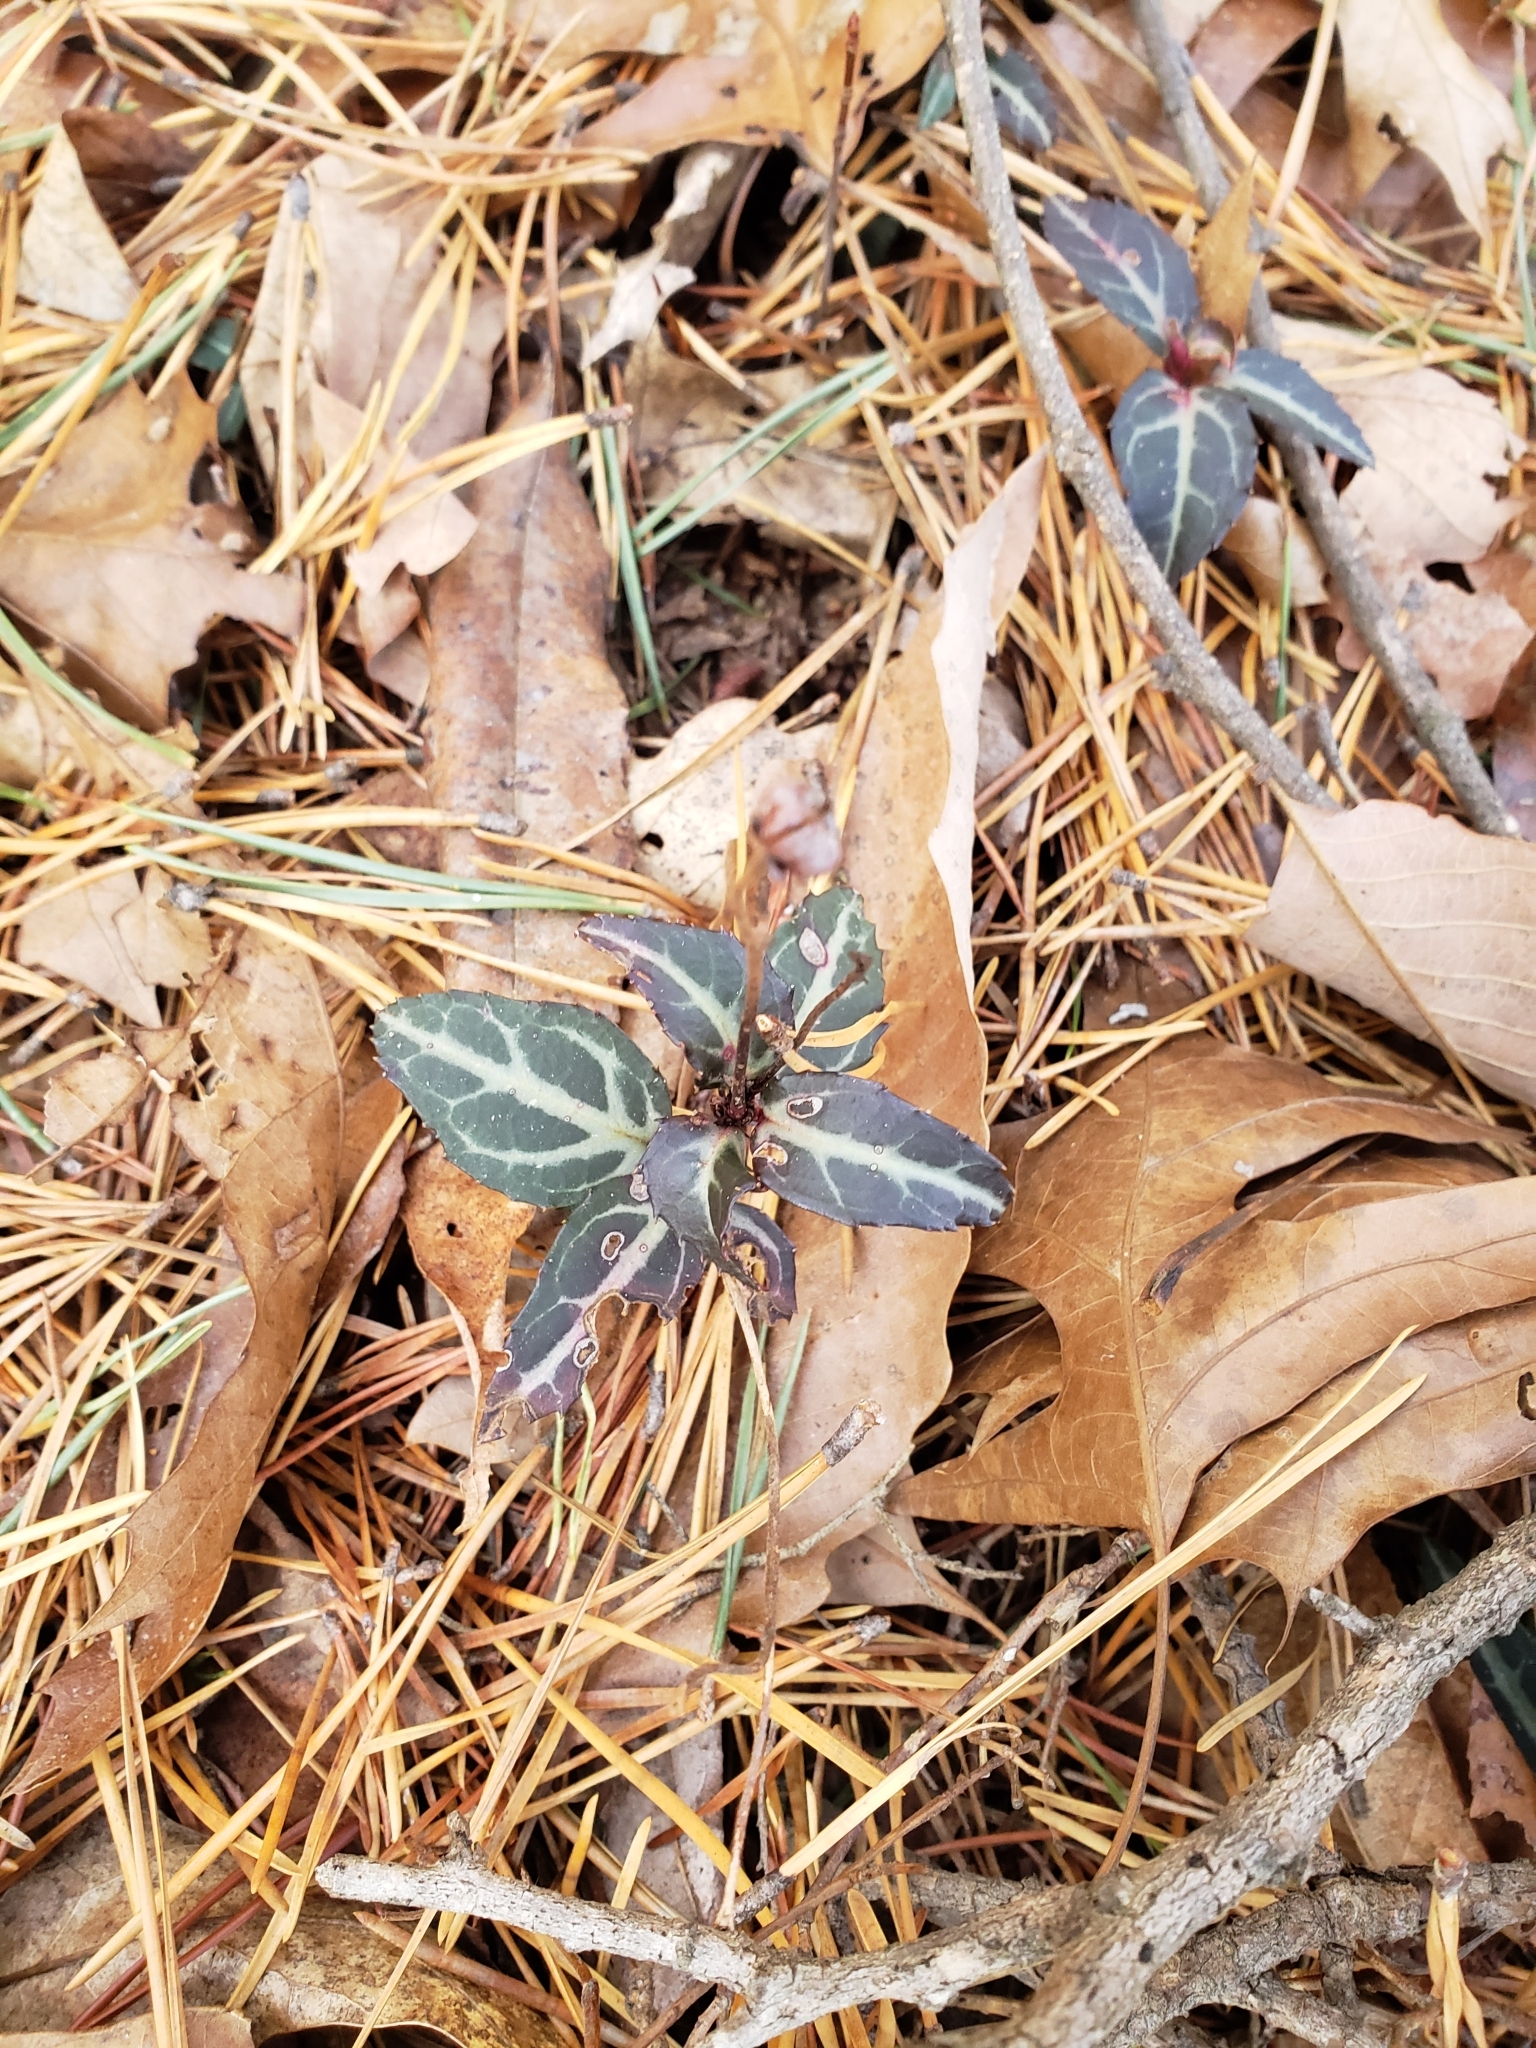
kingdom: Plantae
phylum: Tracheophyta
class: Magnoliopsida
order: Ericales
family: Ericaceae
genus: Chimaphila
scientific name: Chimaphila maculata
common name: Spotted pipsissewa
